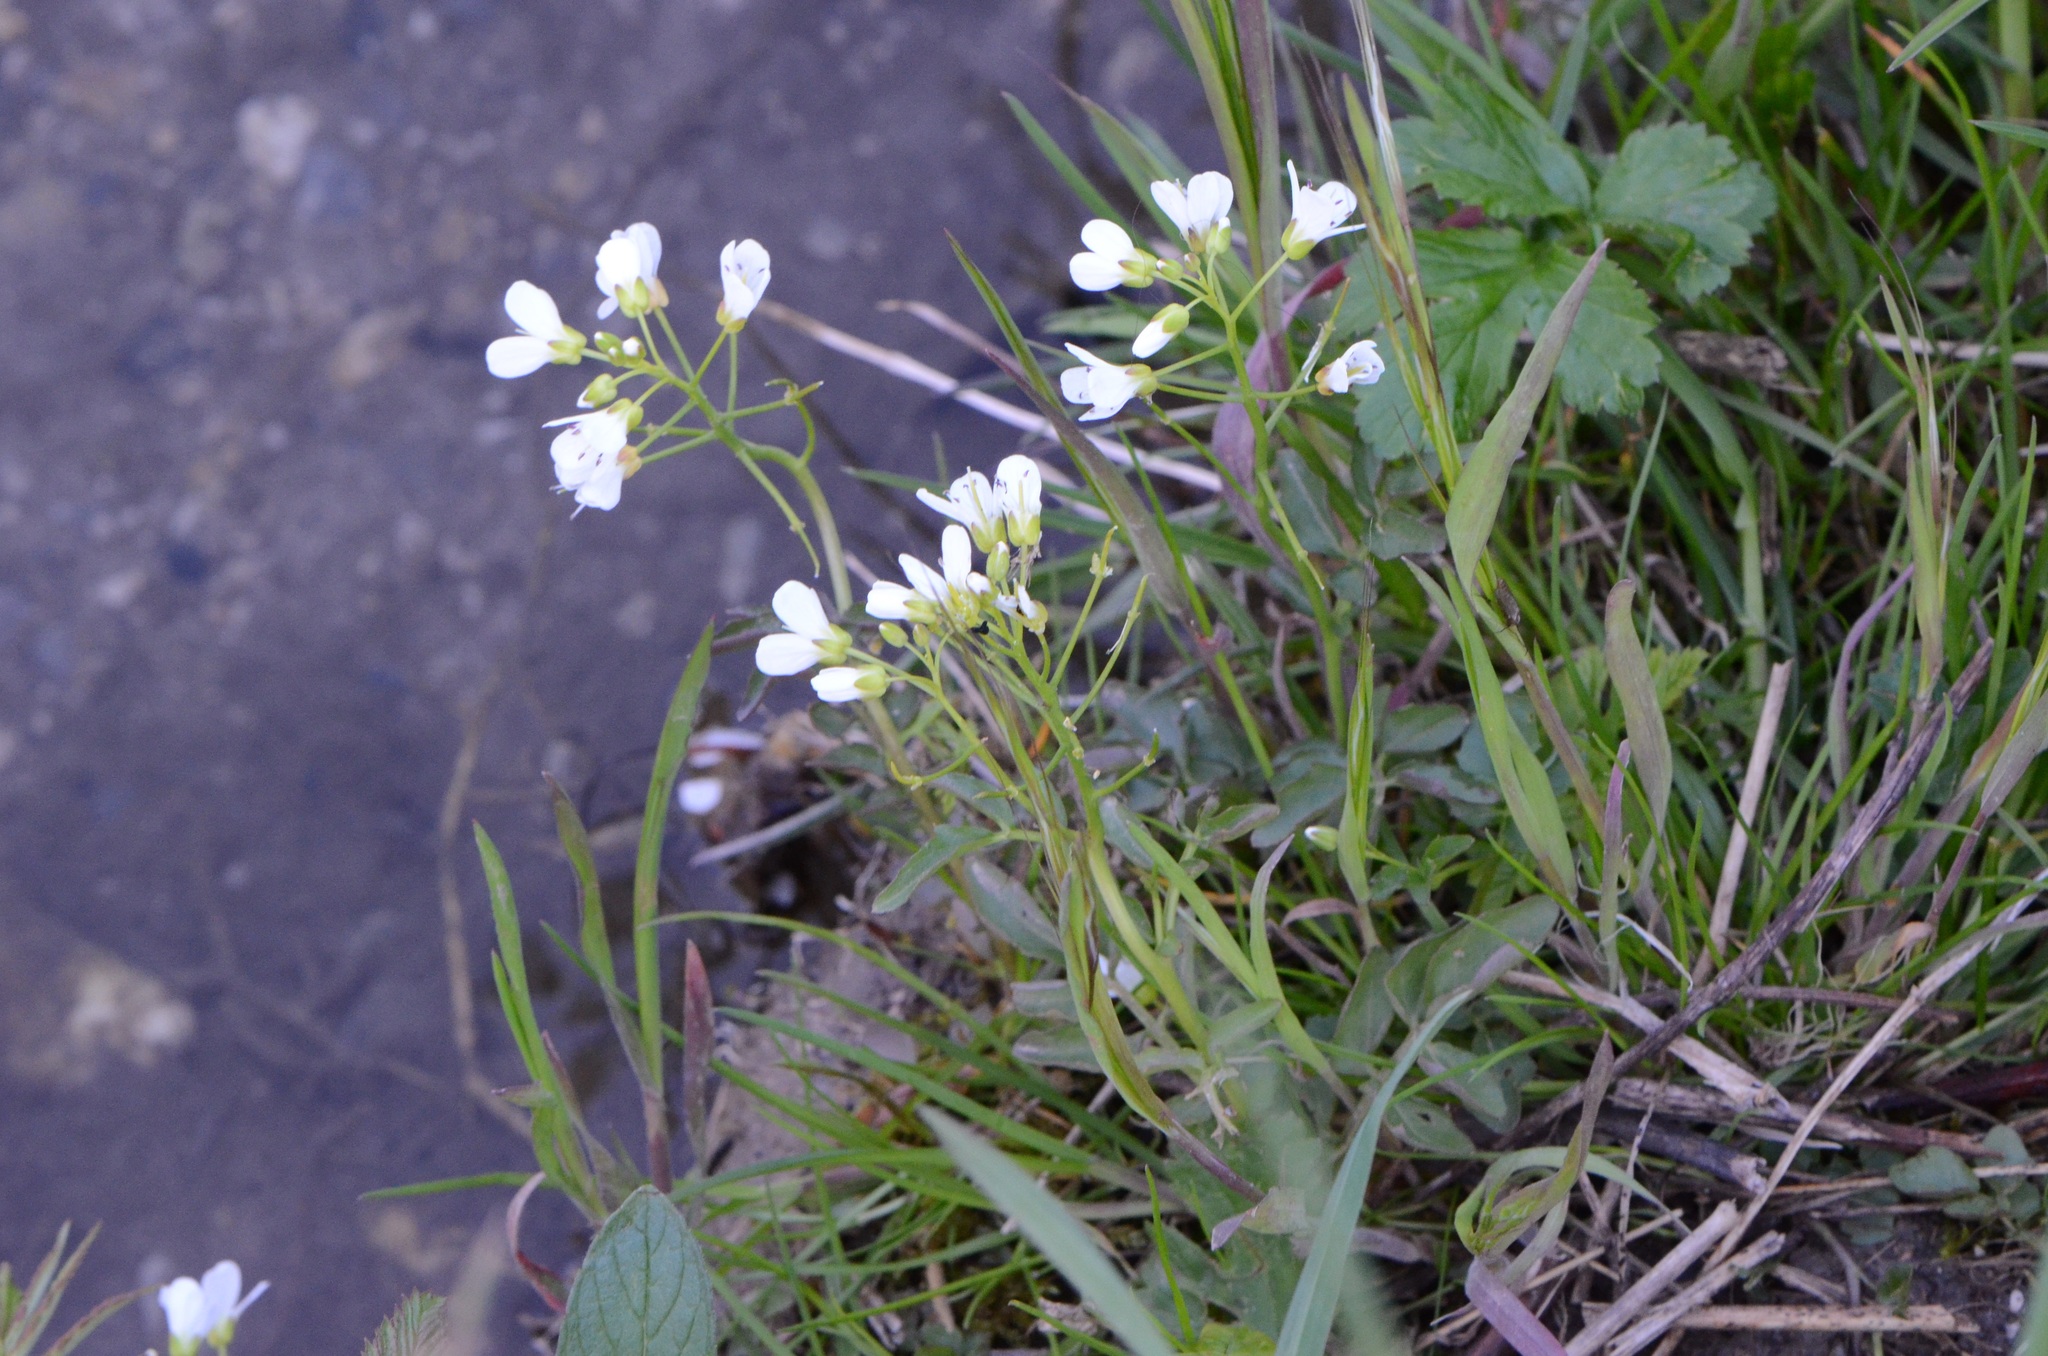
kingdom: Plantae
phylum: Tracheophyta
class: Magnoliopsida
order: Brassicales
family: Brassicaceae
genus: Cardamine
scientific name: Cardamine amara
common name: Large bitter-cress
